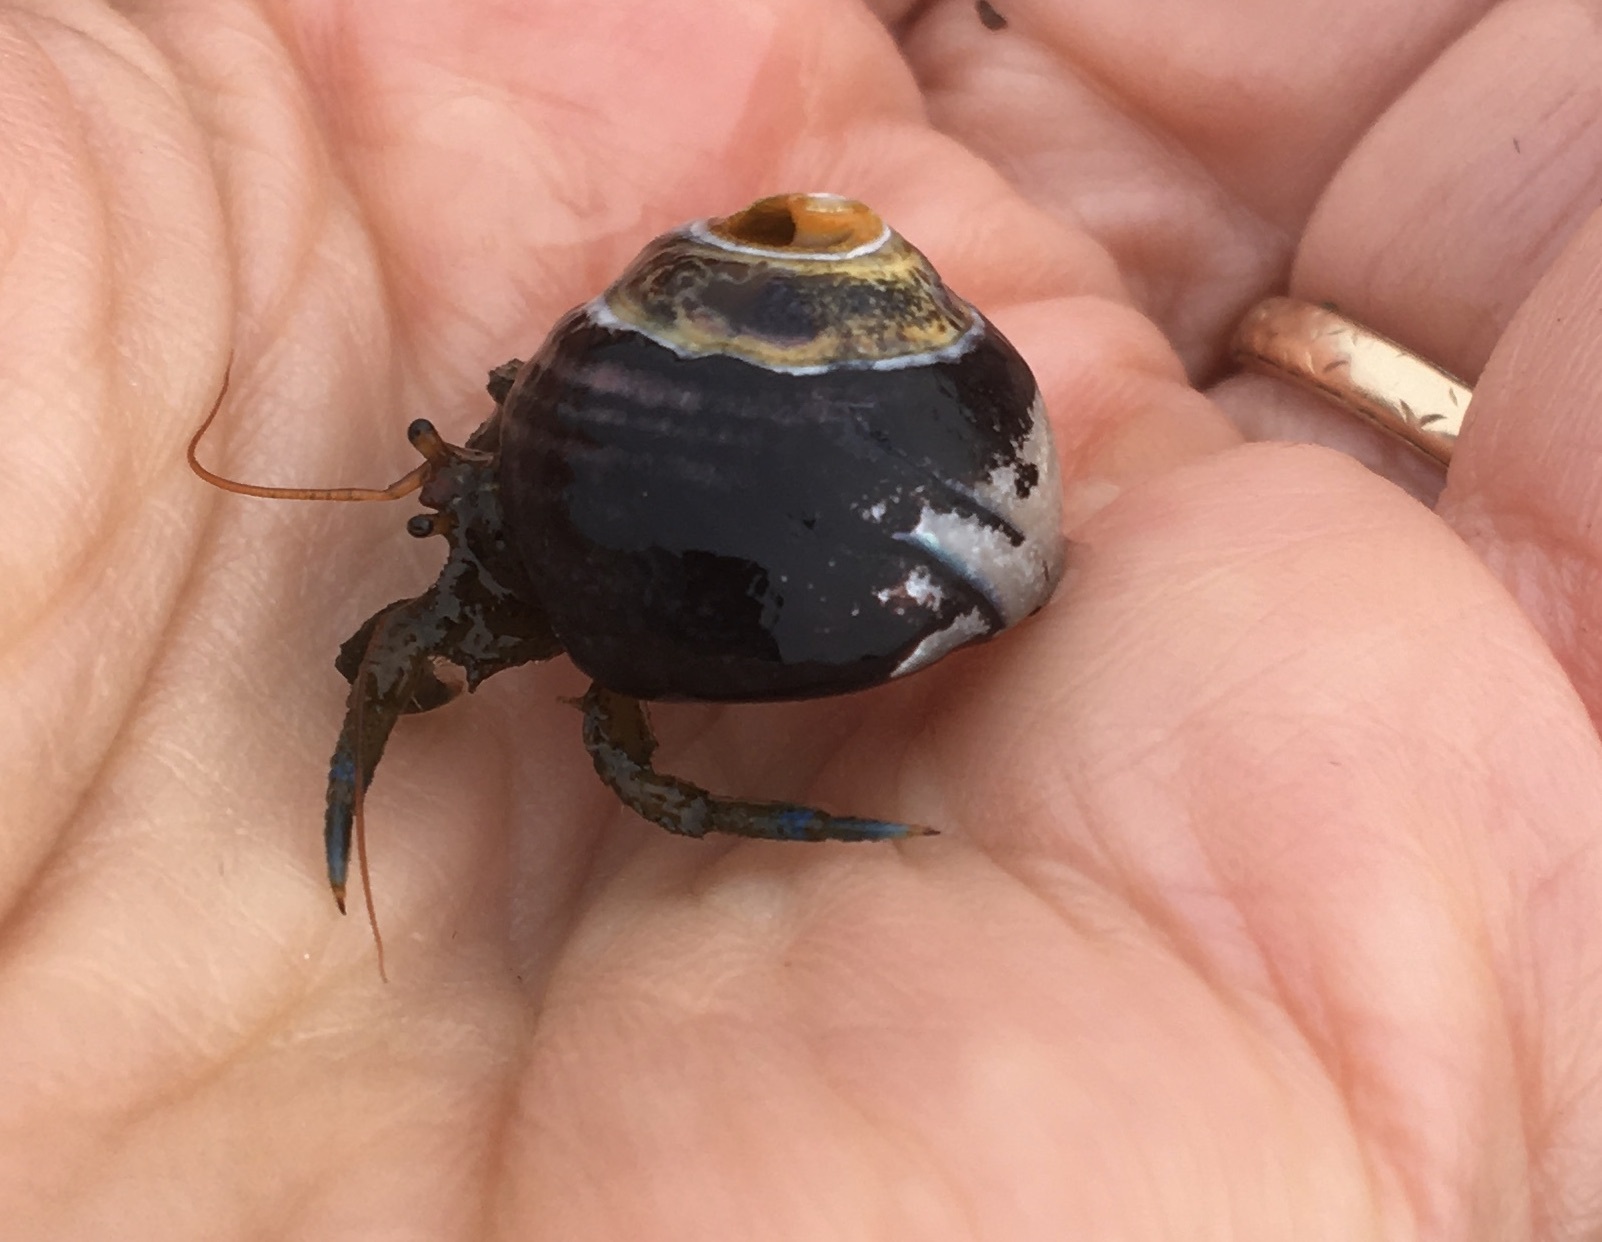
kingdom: Animalia
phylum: Arthropoda
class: Malacostraca
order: Decapoda
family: Paguridae
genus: Pagurus
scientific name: Pagurus samuelis
